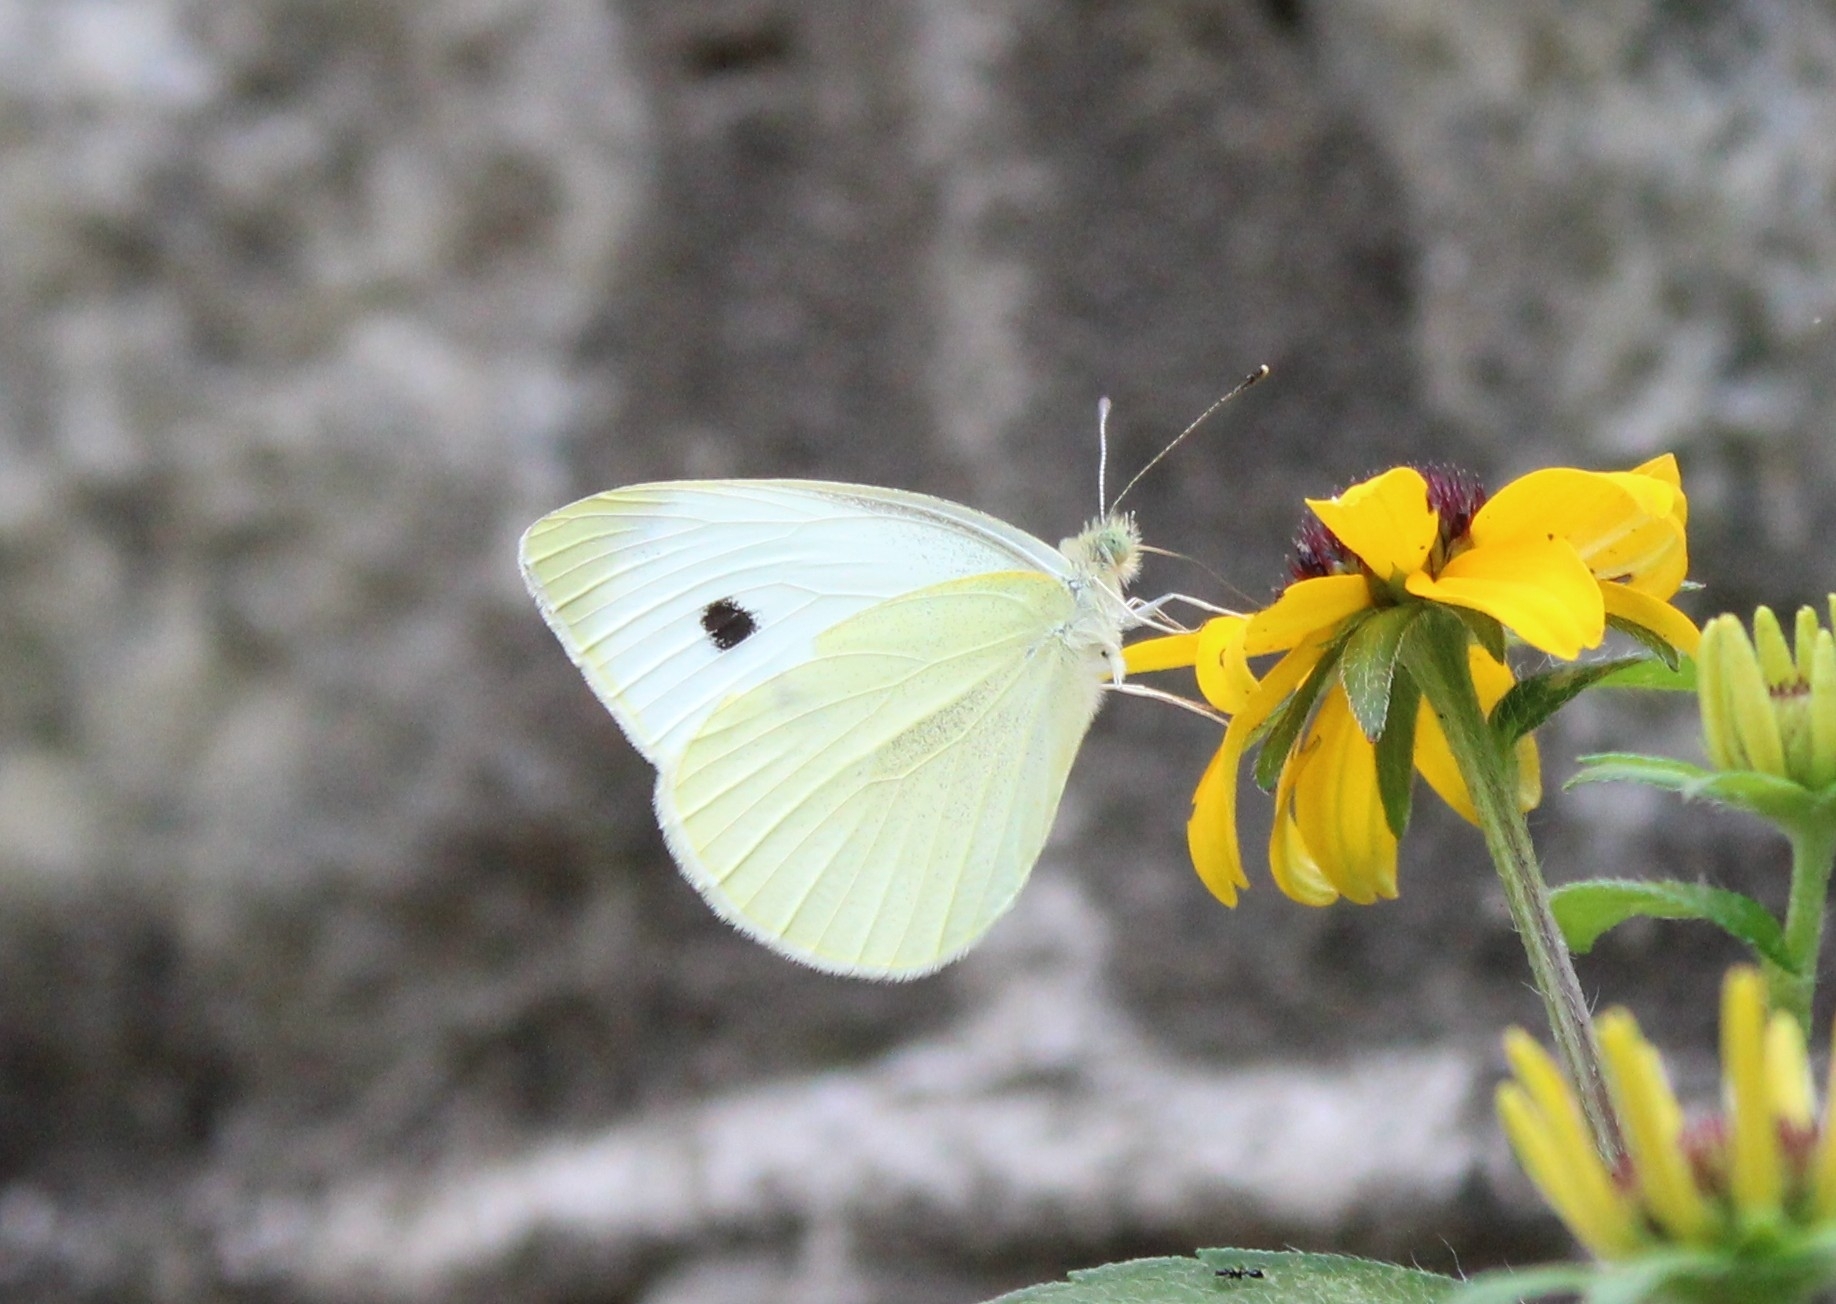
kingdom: Animalia
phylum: Arthropoda
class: Insecta
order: Lepidoptera
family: Pieridae
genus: Pieris
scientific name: Pieris rapae
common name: Small white
